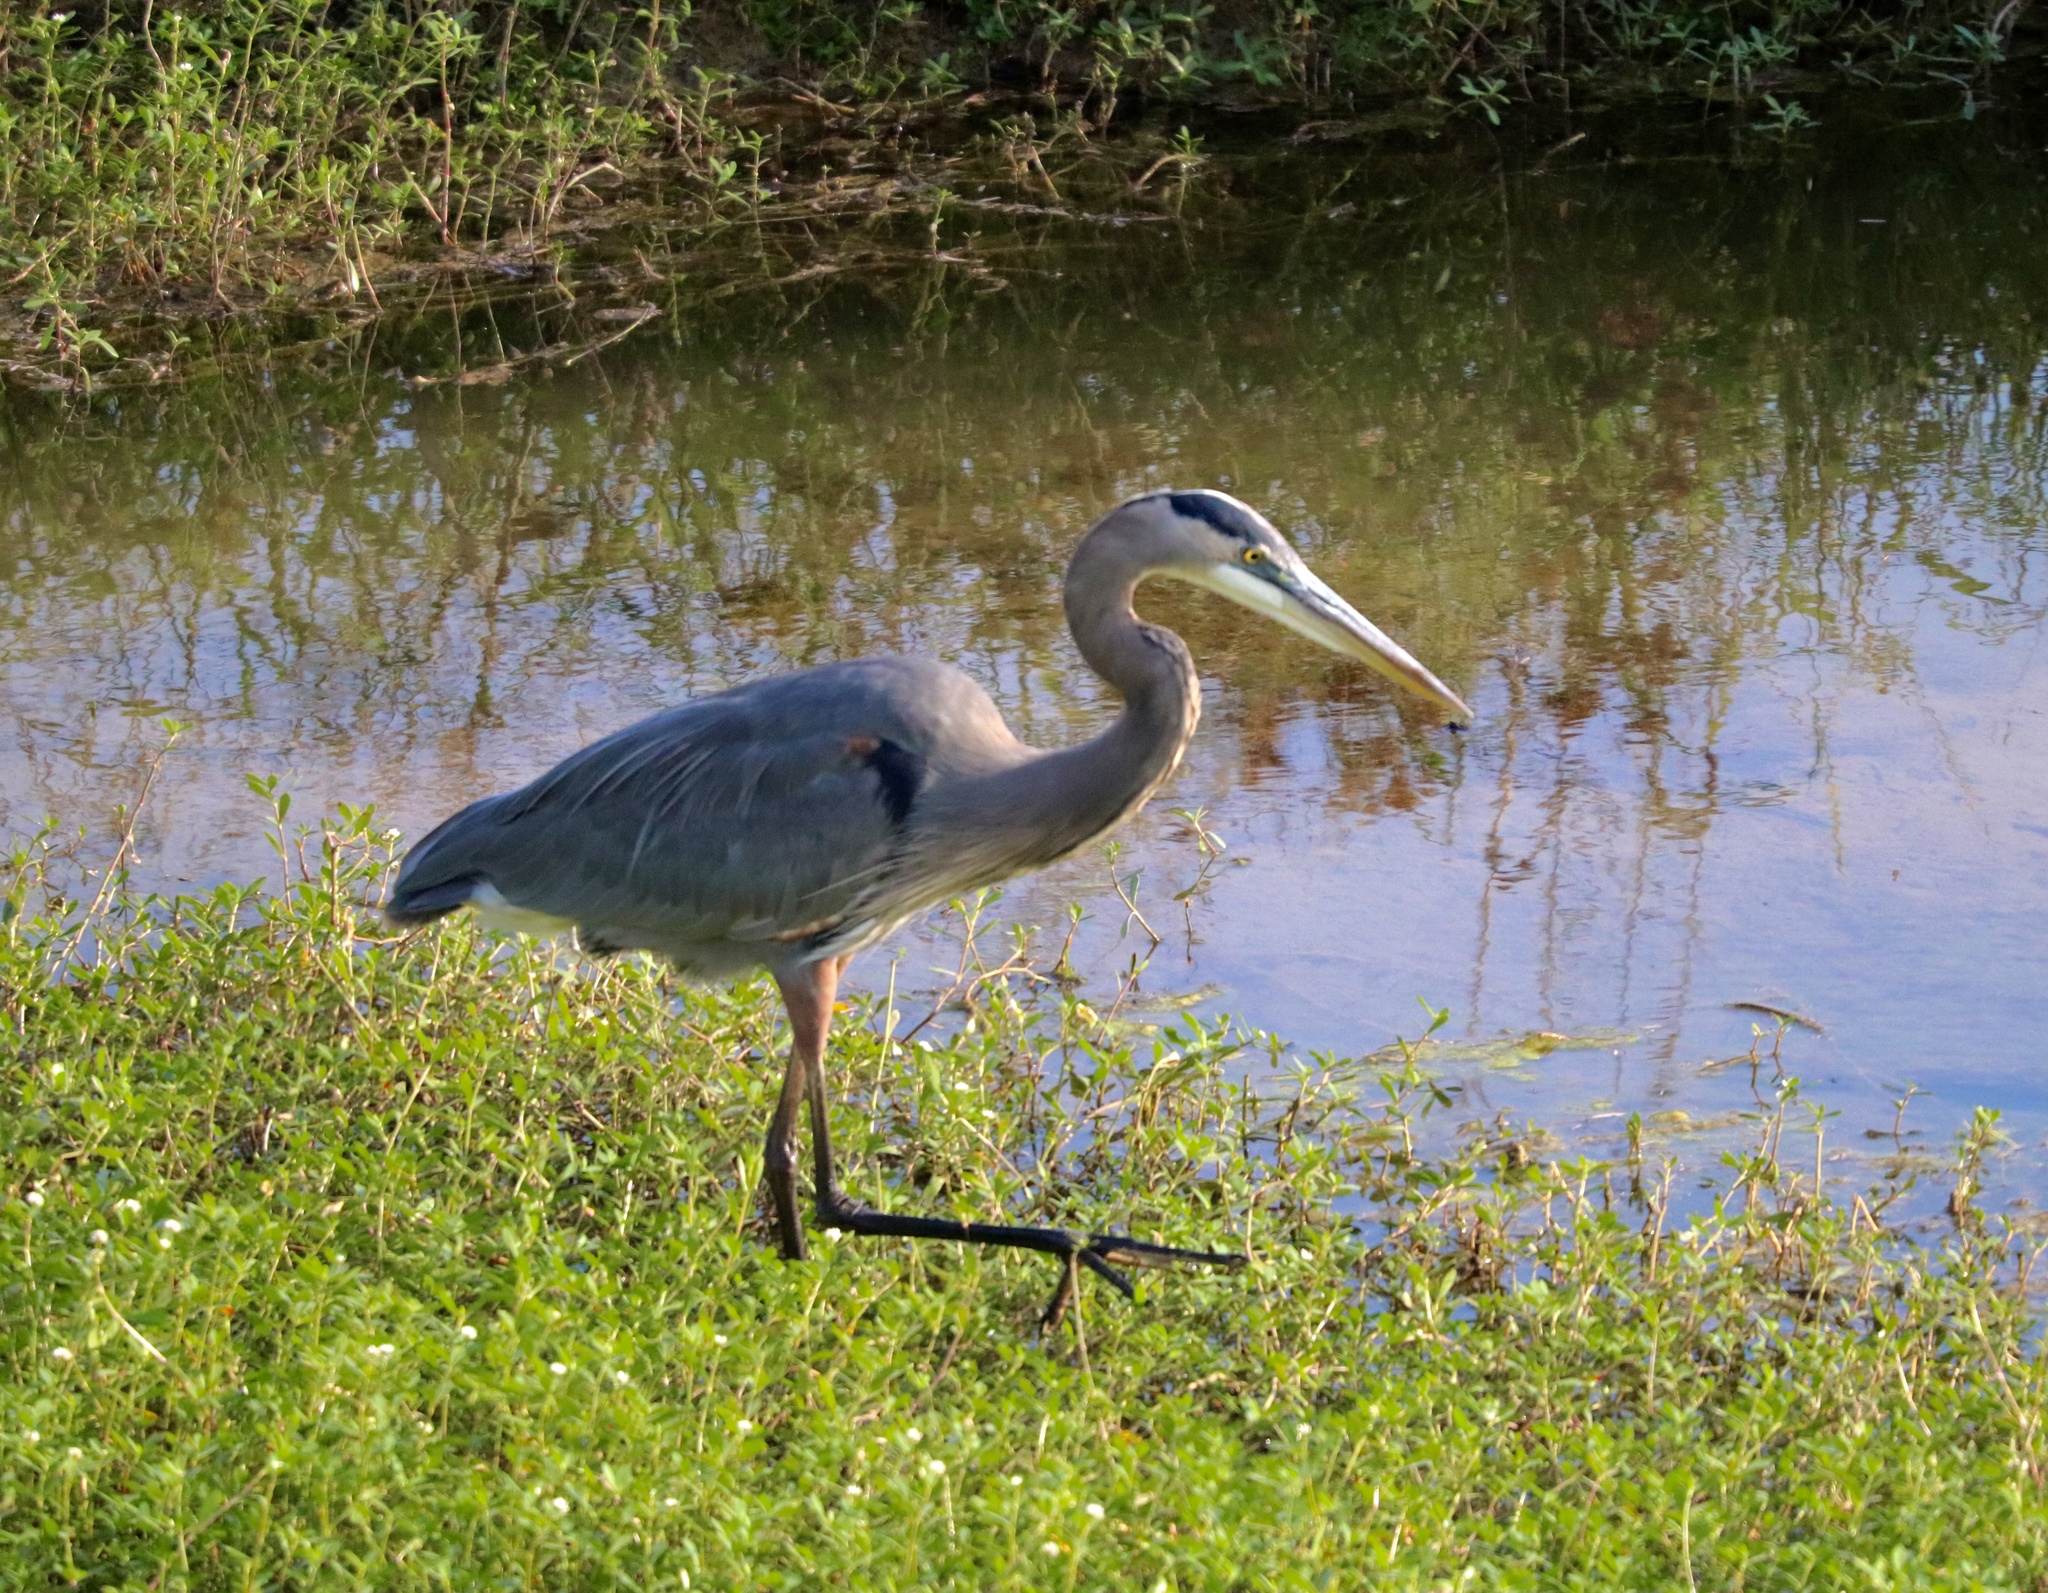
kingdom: Animalia
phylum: Chordata
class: Aves
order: Pelecaniformes
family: Ardeidae
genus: Ardea
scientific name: Ardea herodias
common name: Great blue heron
